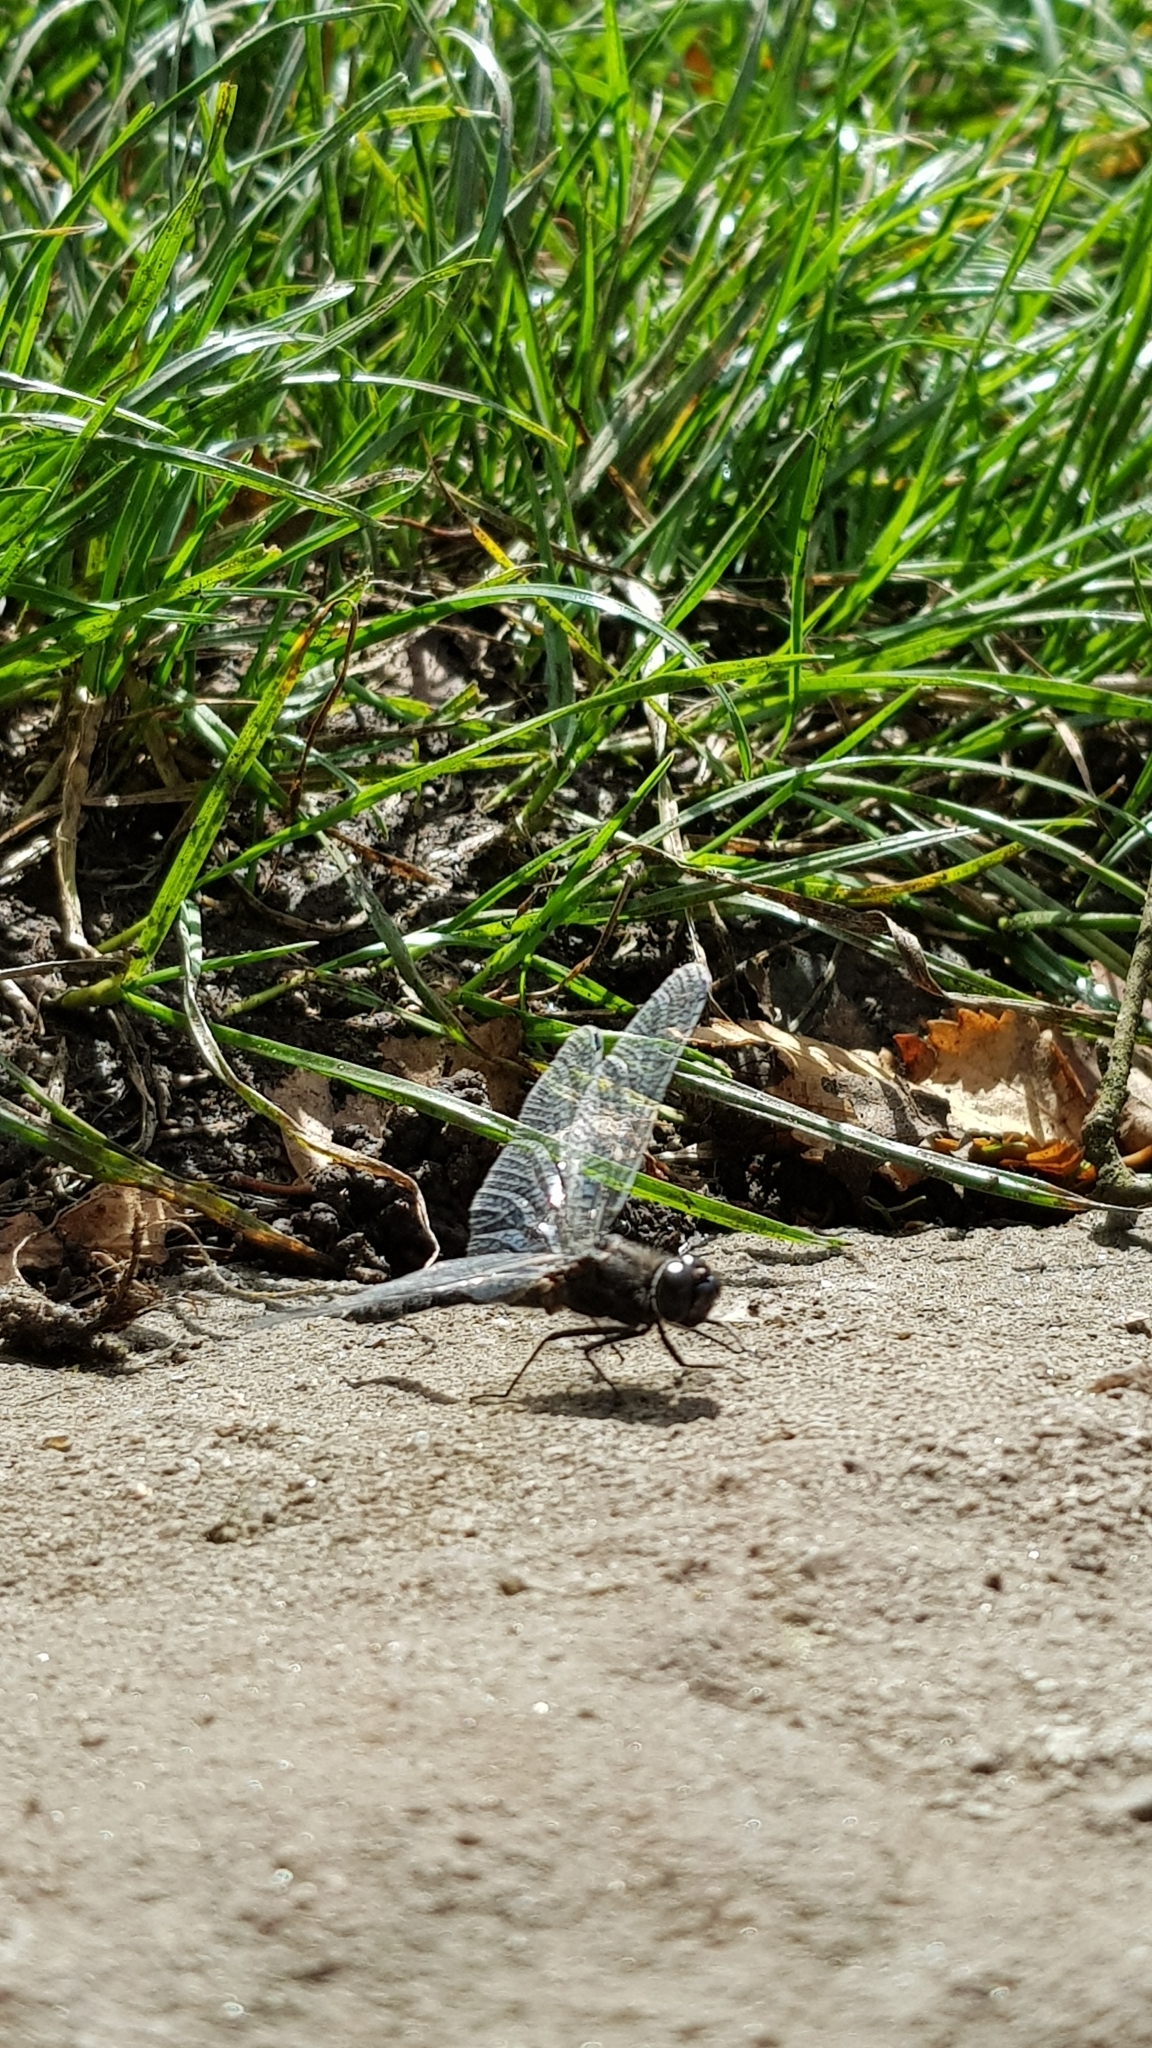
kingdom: Animalia
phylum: Arthropoda
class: Insecta
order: Odonata
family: Libellulidae
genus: Sympetrum
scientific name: Sympetrum danae
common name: Black darter
